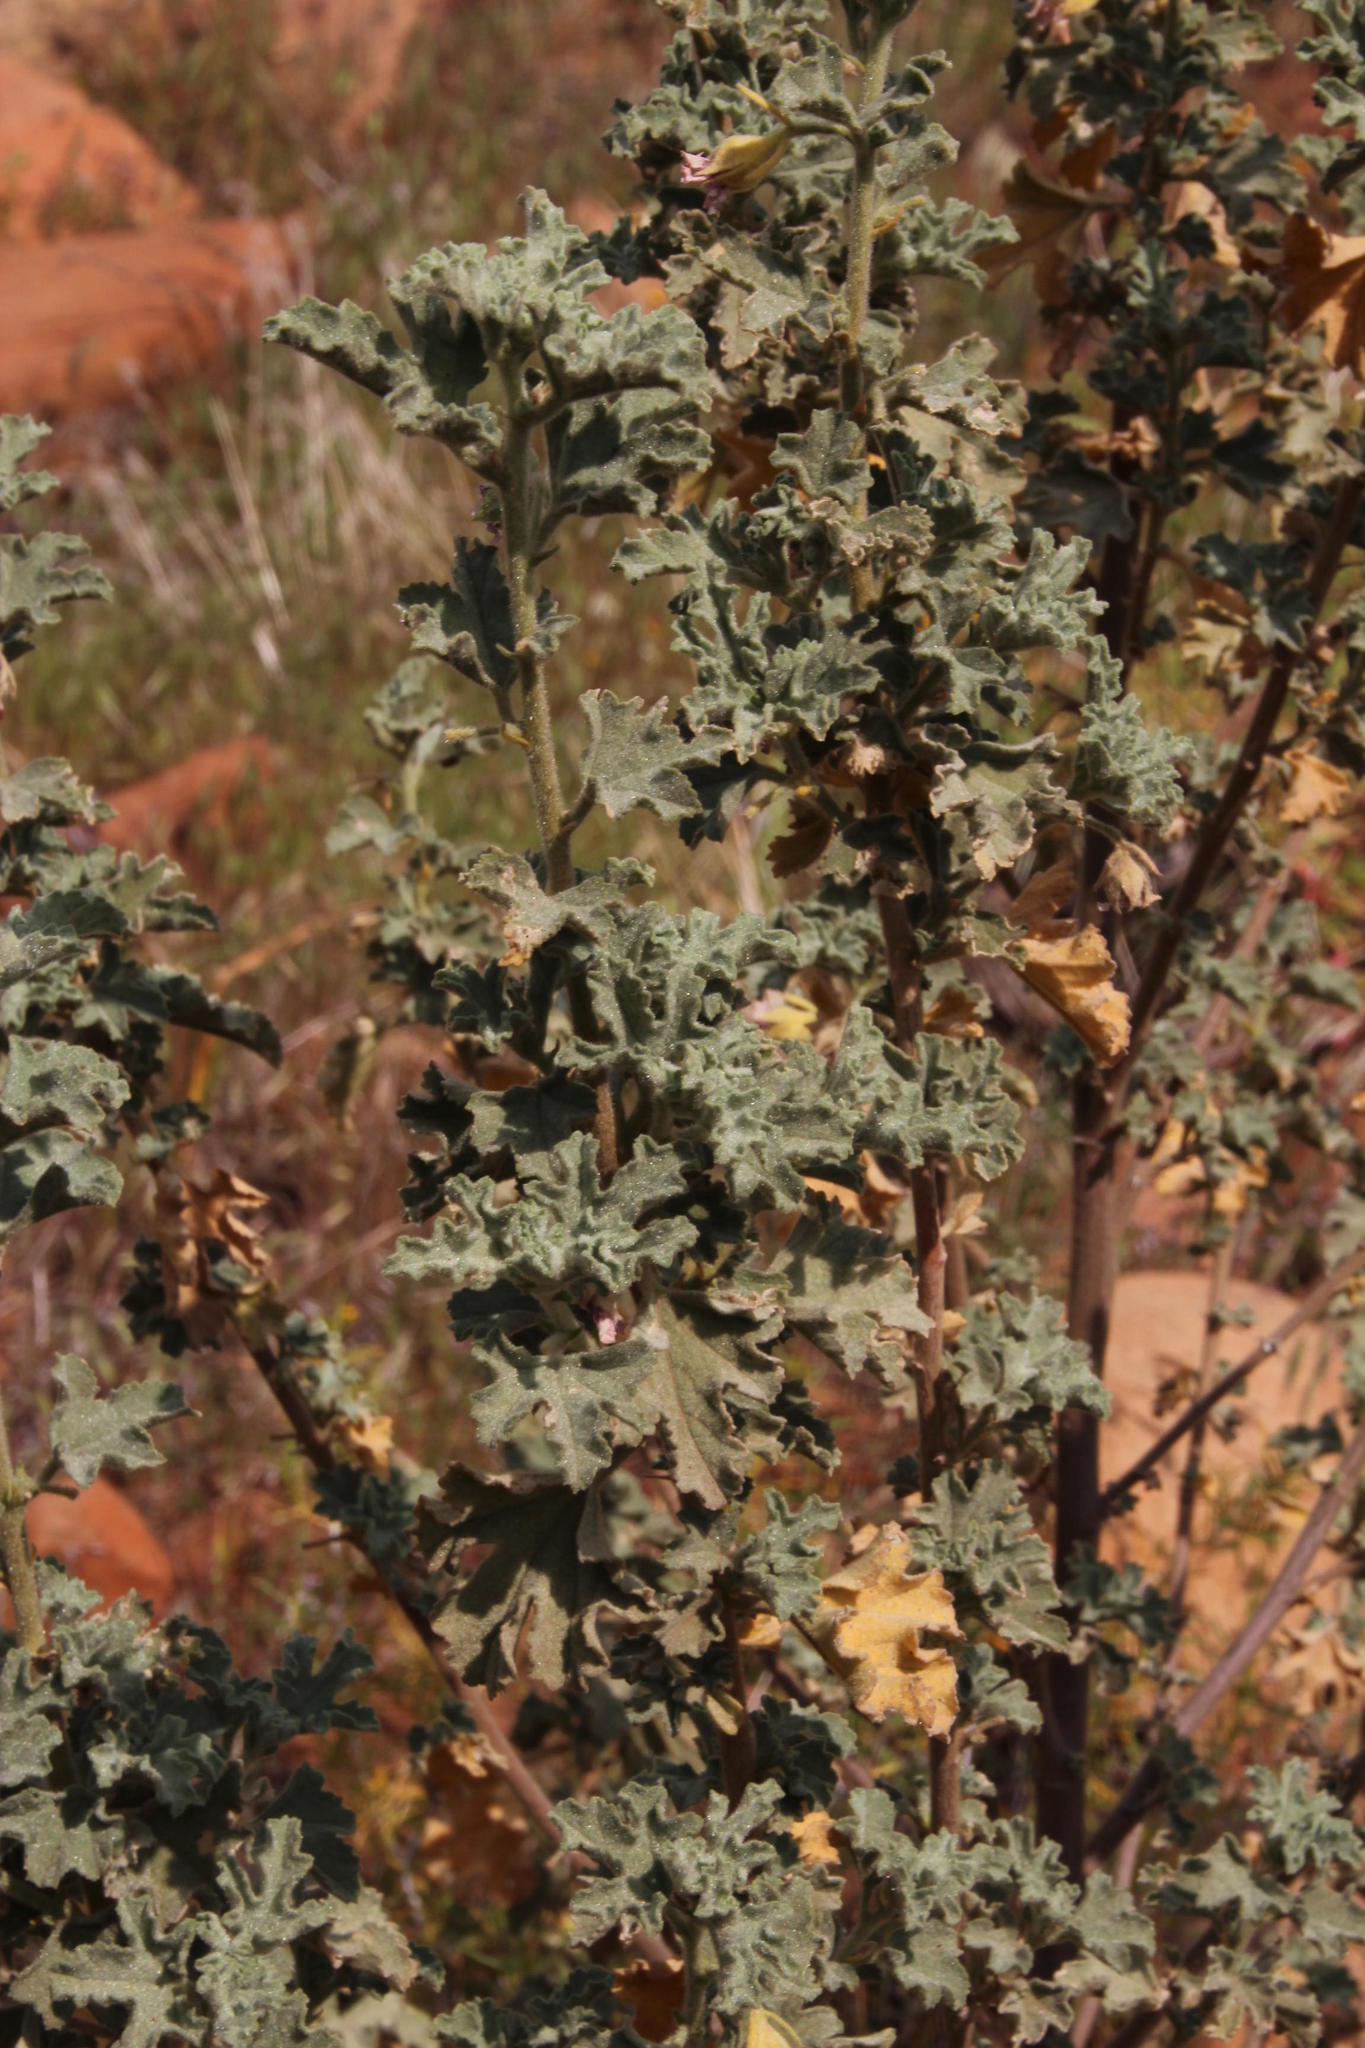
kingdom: Plantae
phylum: Tracheophyta
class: Magnoliopsida
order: Malvales
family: Malvaceae
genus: Anisodontea
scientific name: Anisodontea triloba
